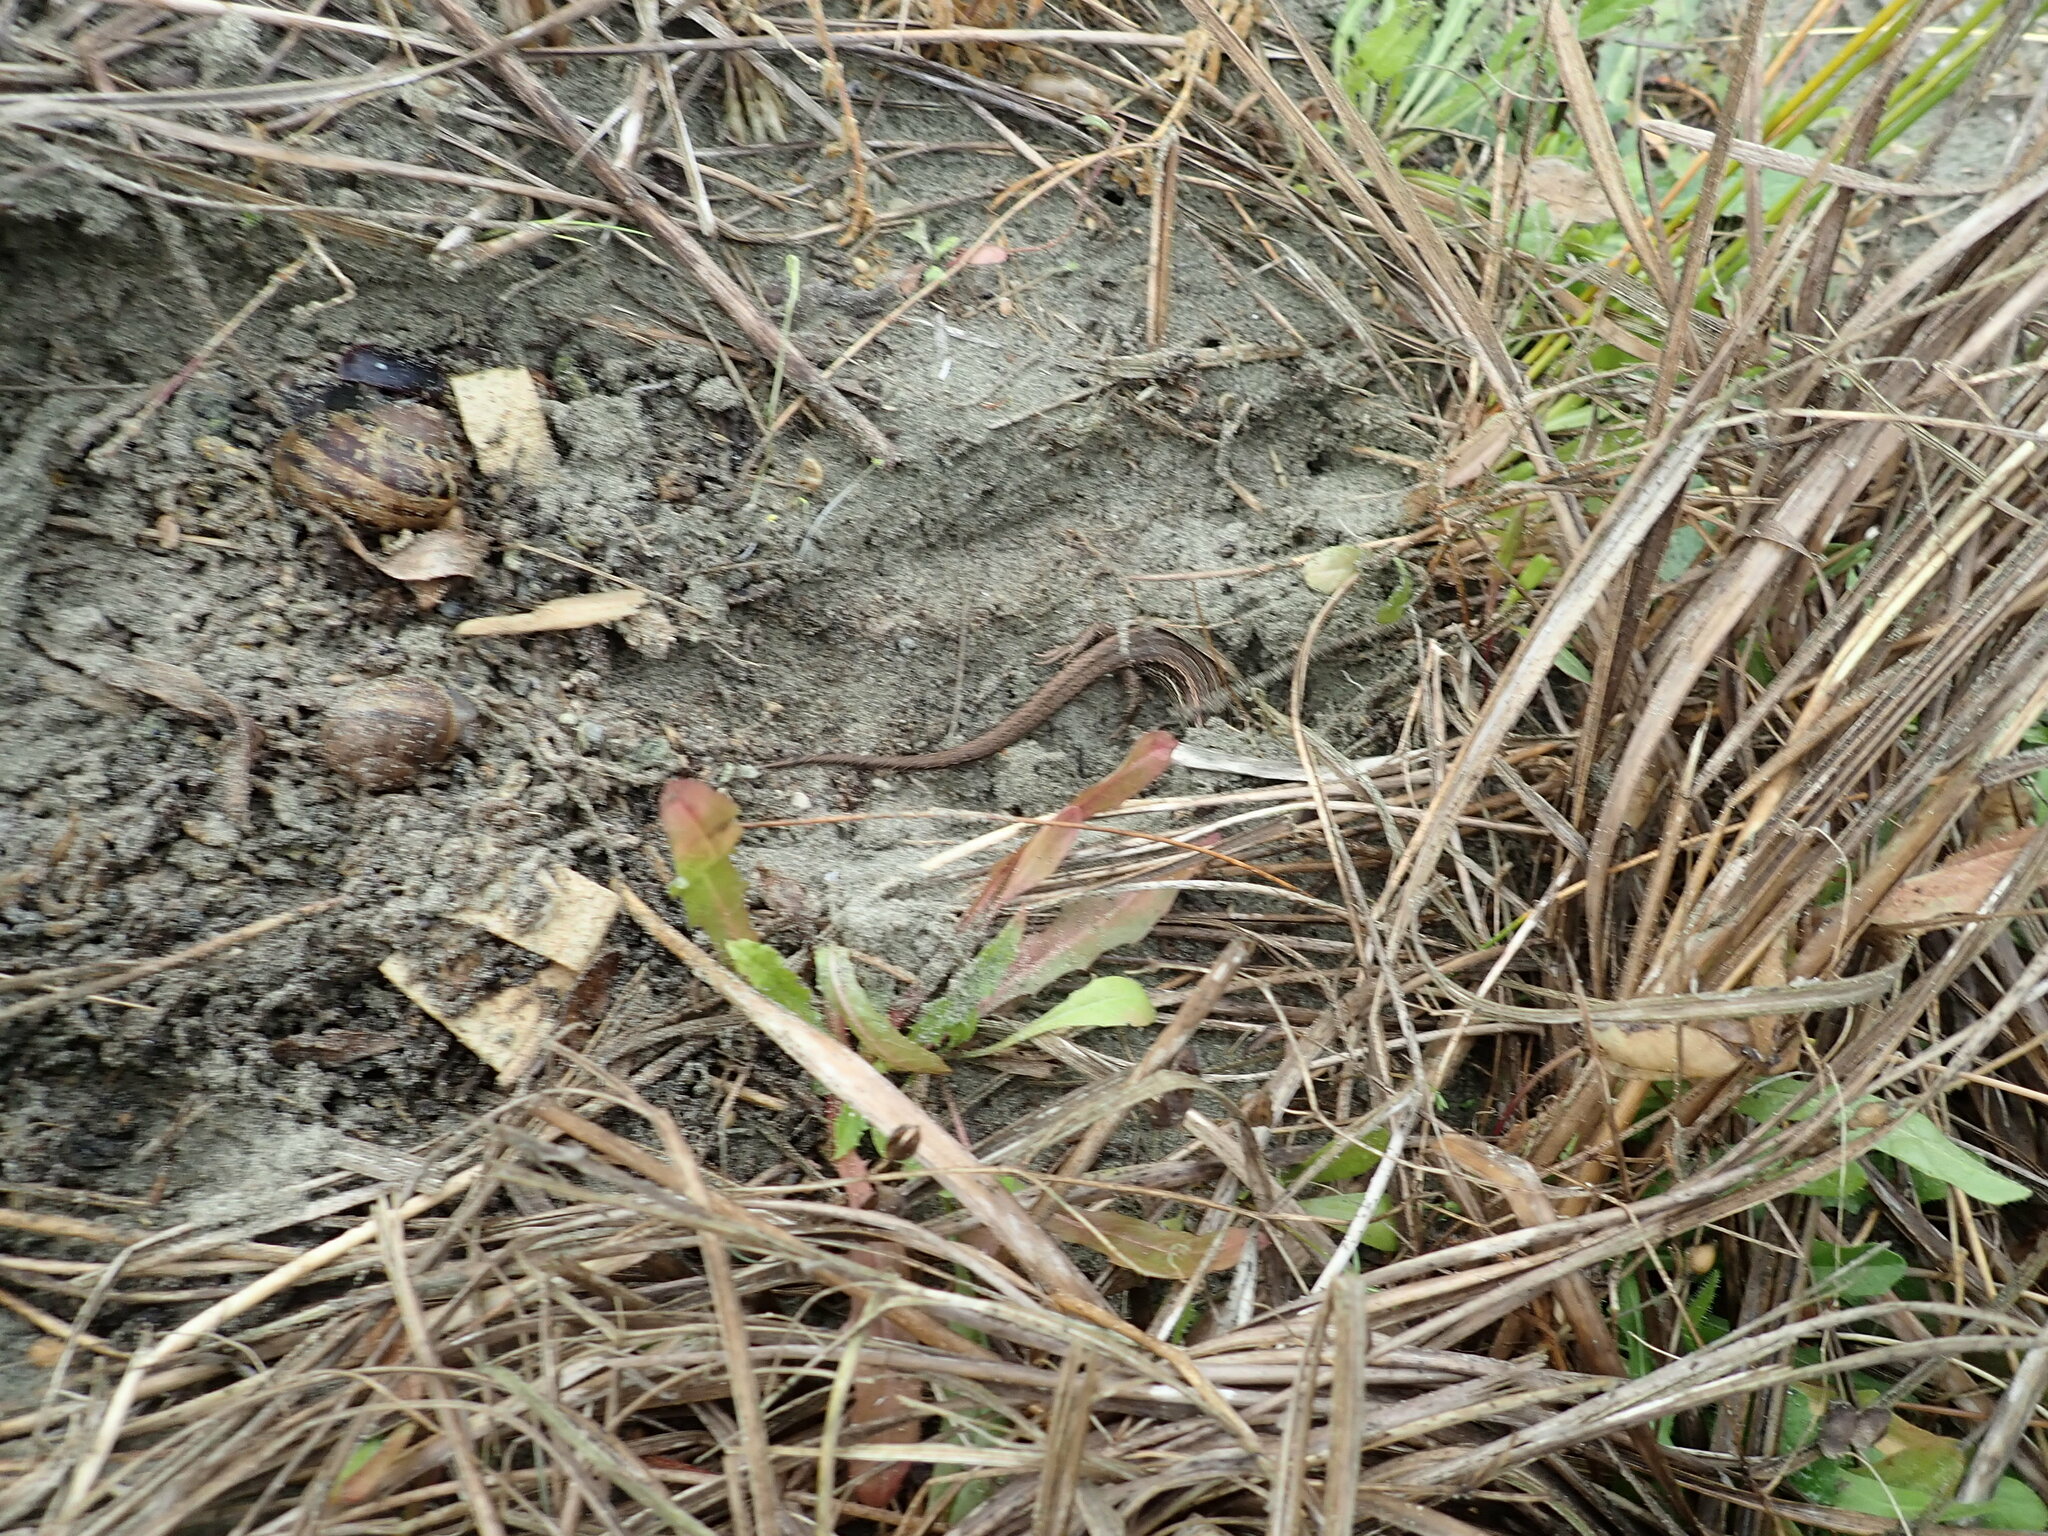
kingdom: Animalia
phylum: Chordata
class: Squamata
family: Scincidae
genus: Oligosoma
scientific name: Oligosoma polychroma
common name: Common new zealand skink
